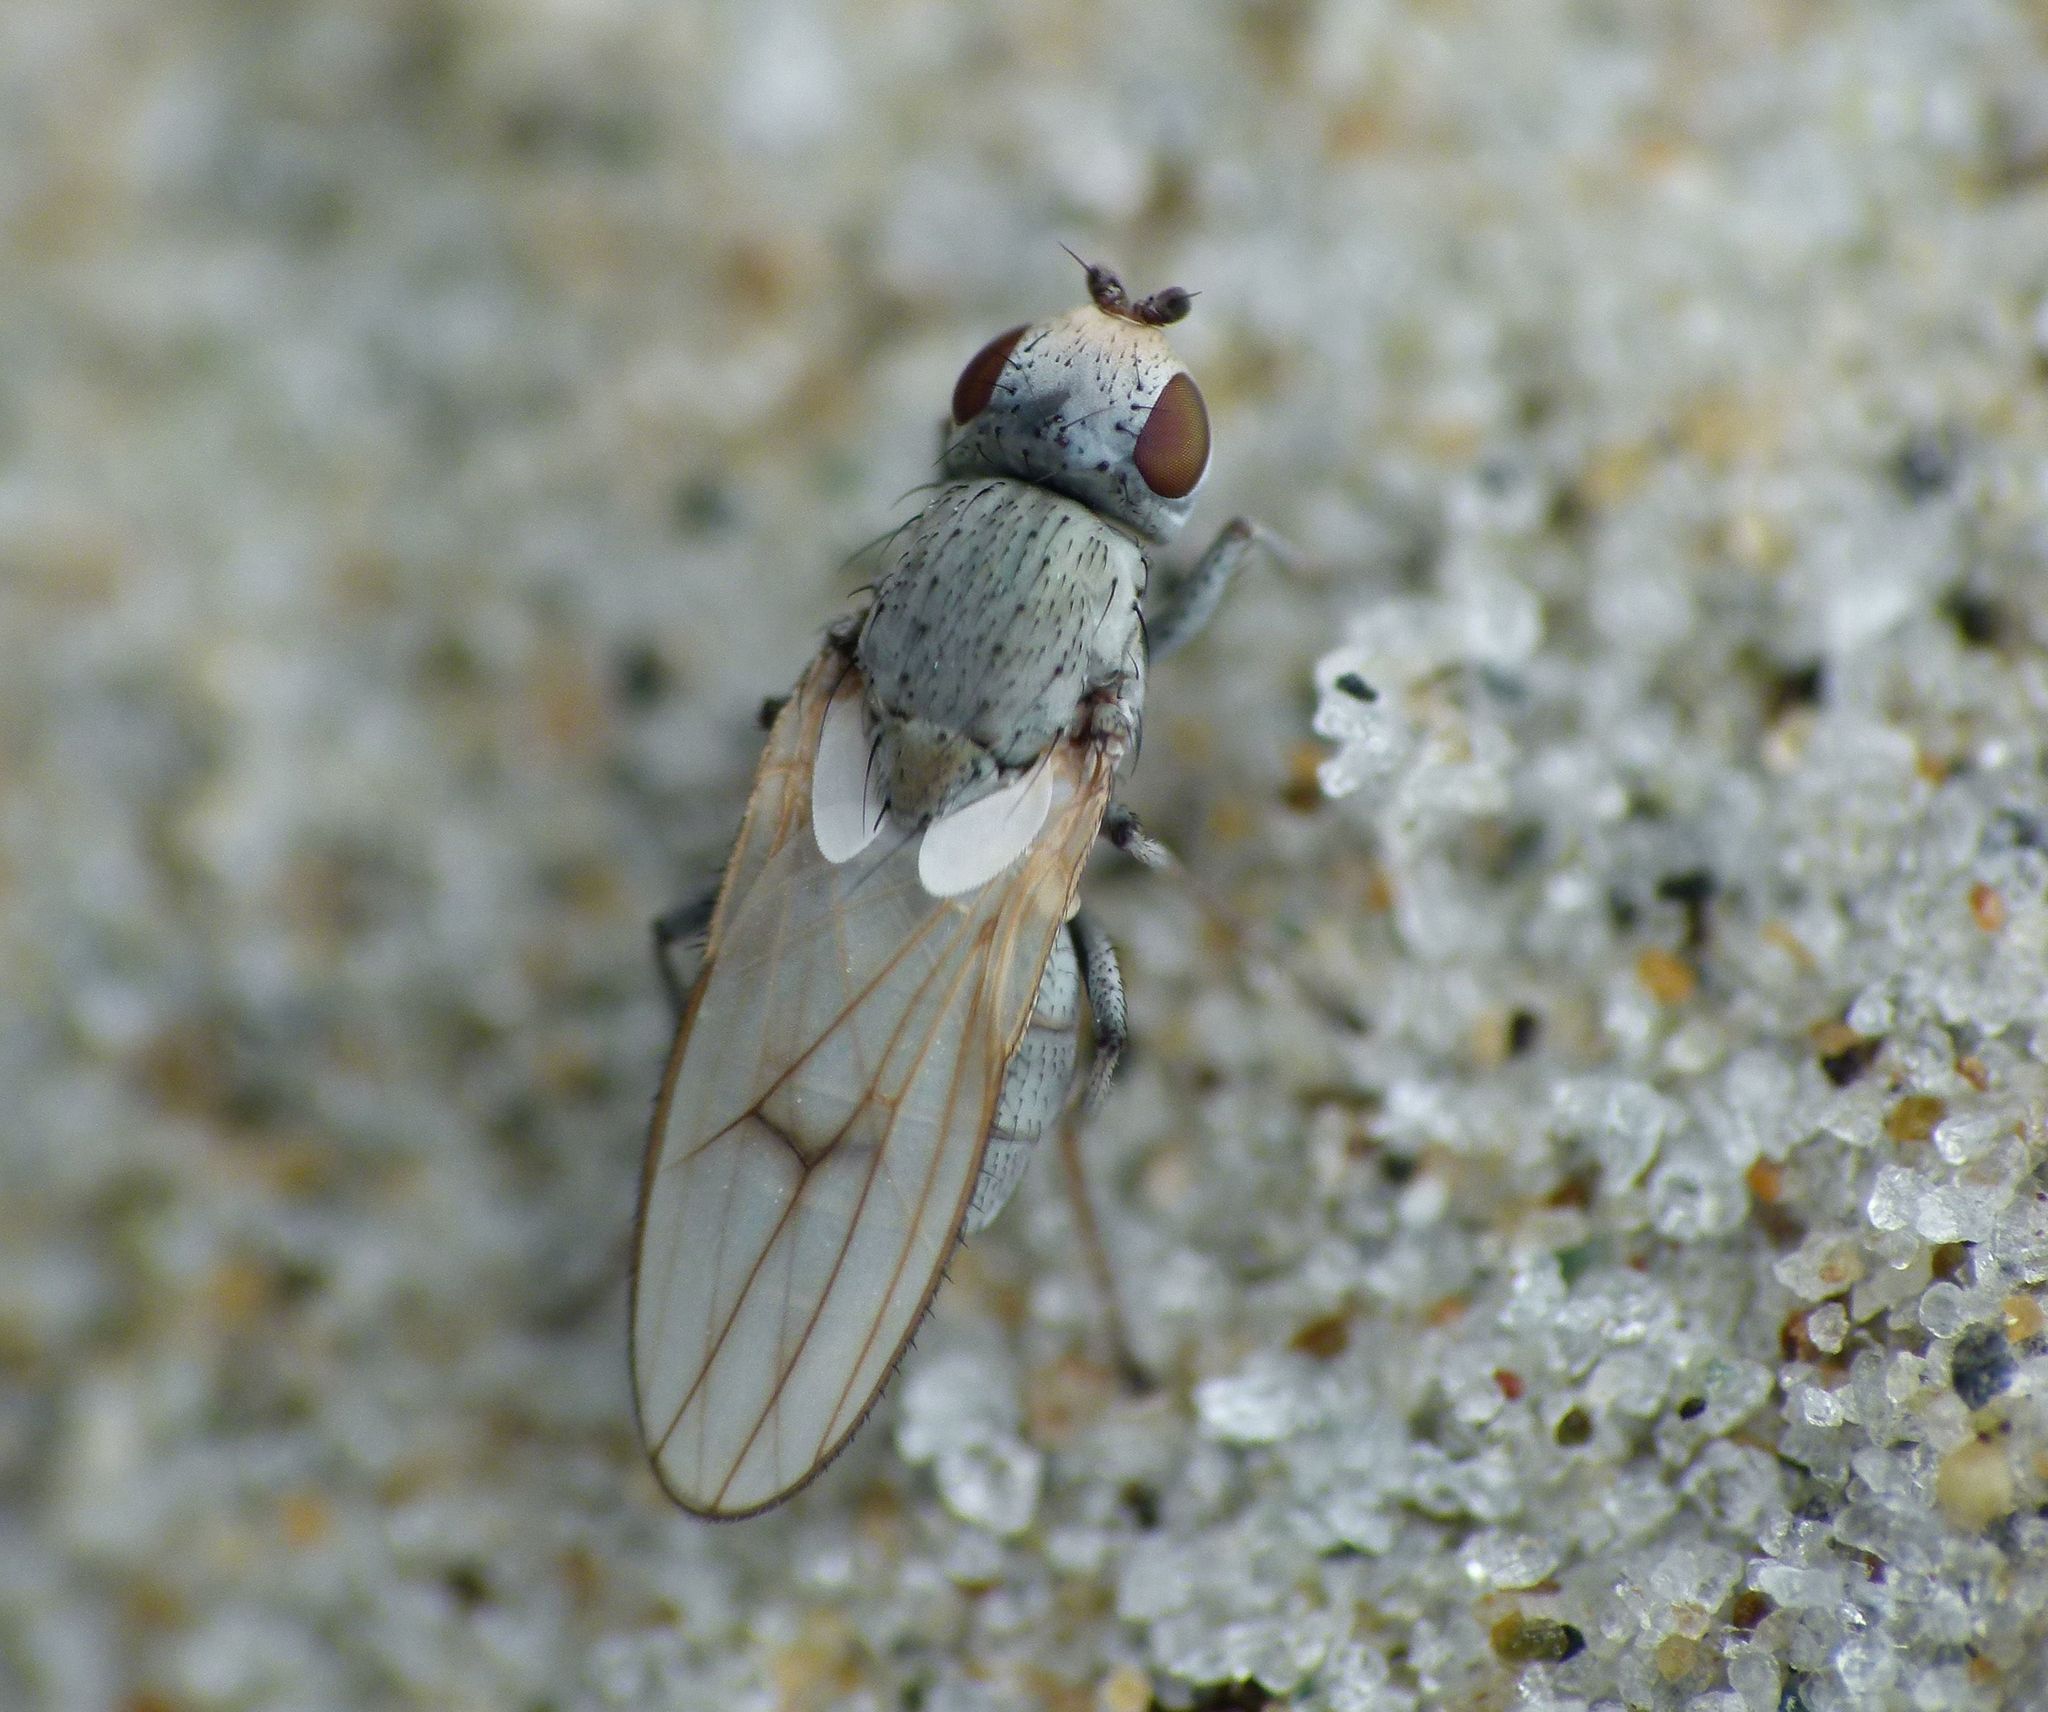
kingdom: Animalia
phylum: Arthropoda
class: Insecta
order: Diptera
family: Canacidae
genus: Tethinosoma
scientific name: Tethinosoma fulvifrons
